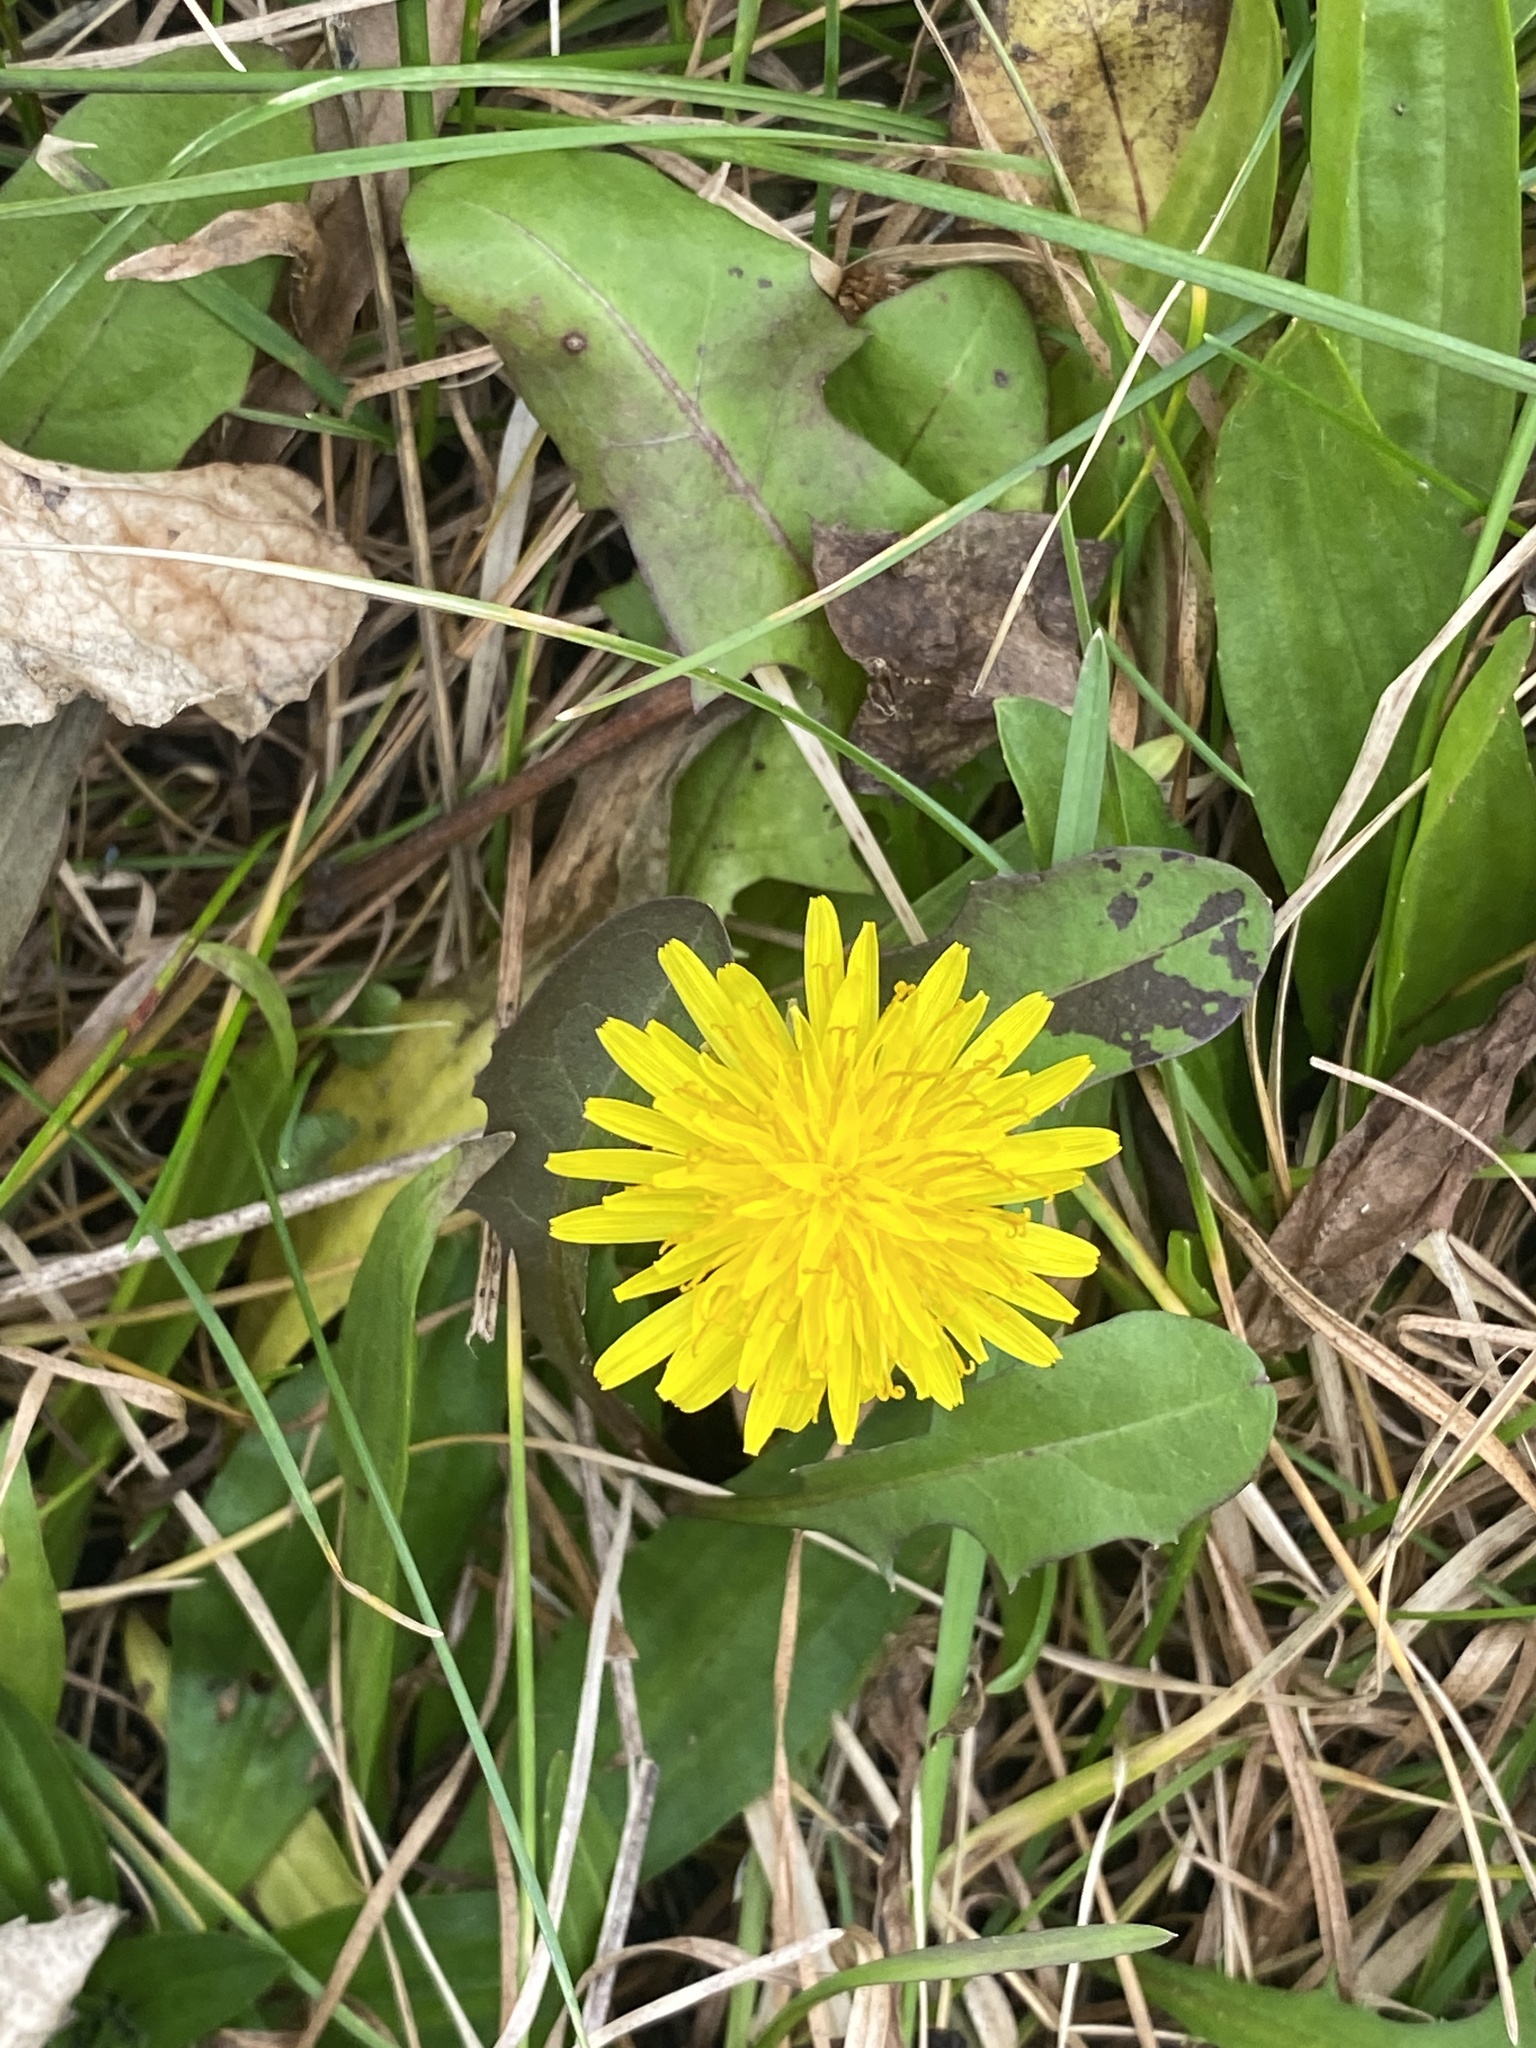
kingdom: Plantae
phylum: Tracheophyta
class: Magnoliopsida
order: Asterales
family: Asteraceae
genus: Taraxacum
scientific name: Taraxacum officinale
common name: Common dandelion
